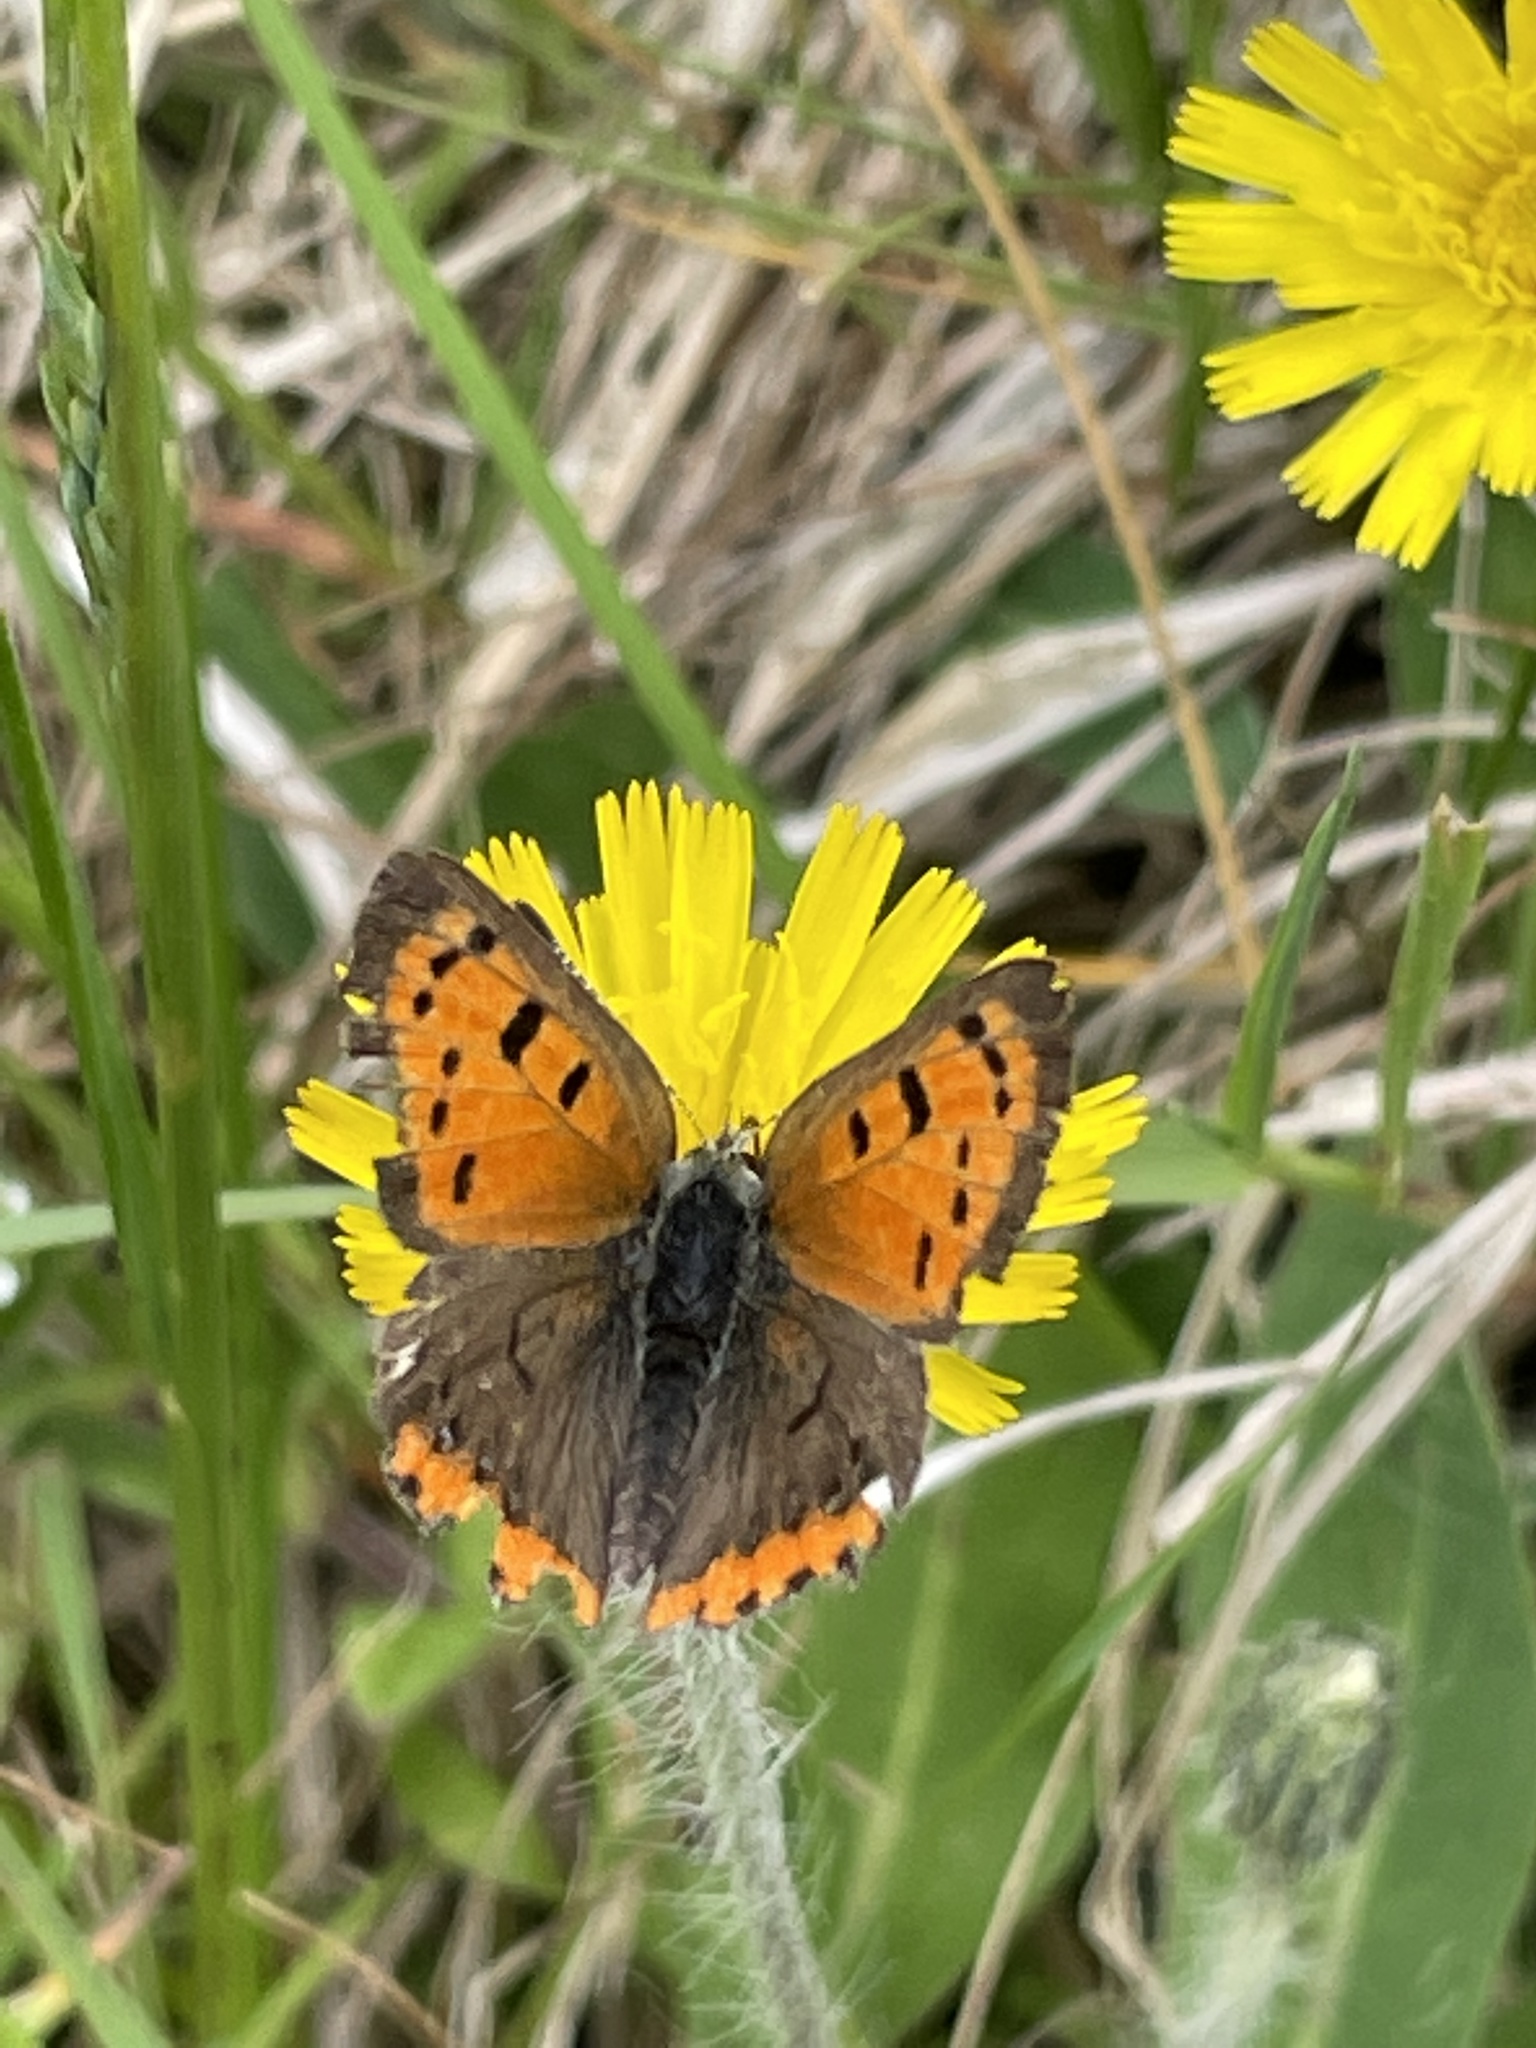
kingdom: Animalia
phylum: Arthropoda
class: Insecta
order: Lepidoptera
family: Lycaenidae
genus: Lycaena
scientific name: Lycaena hypophlaeas
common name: American copper
